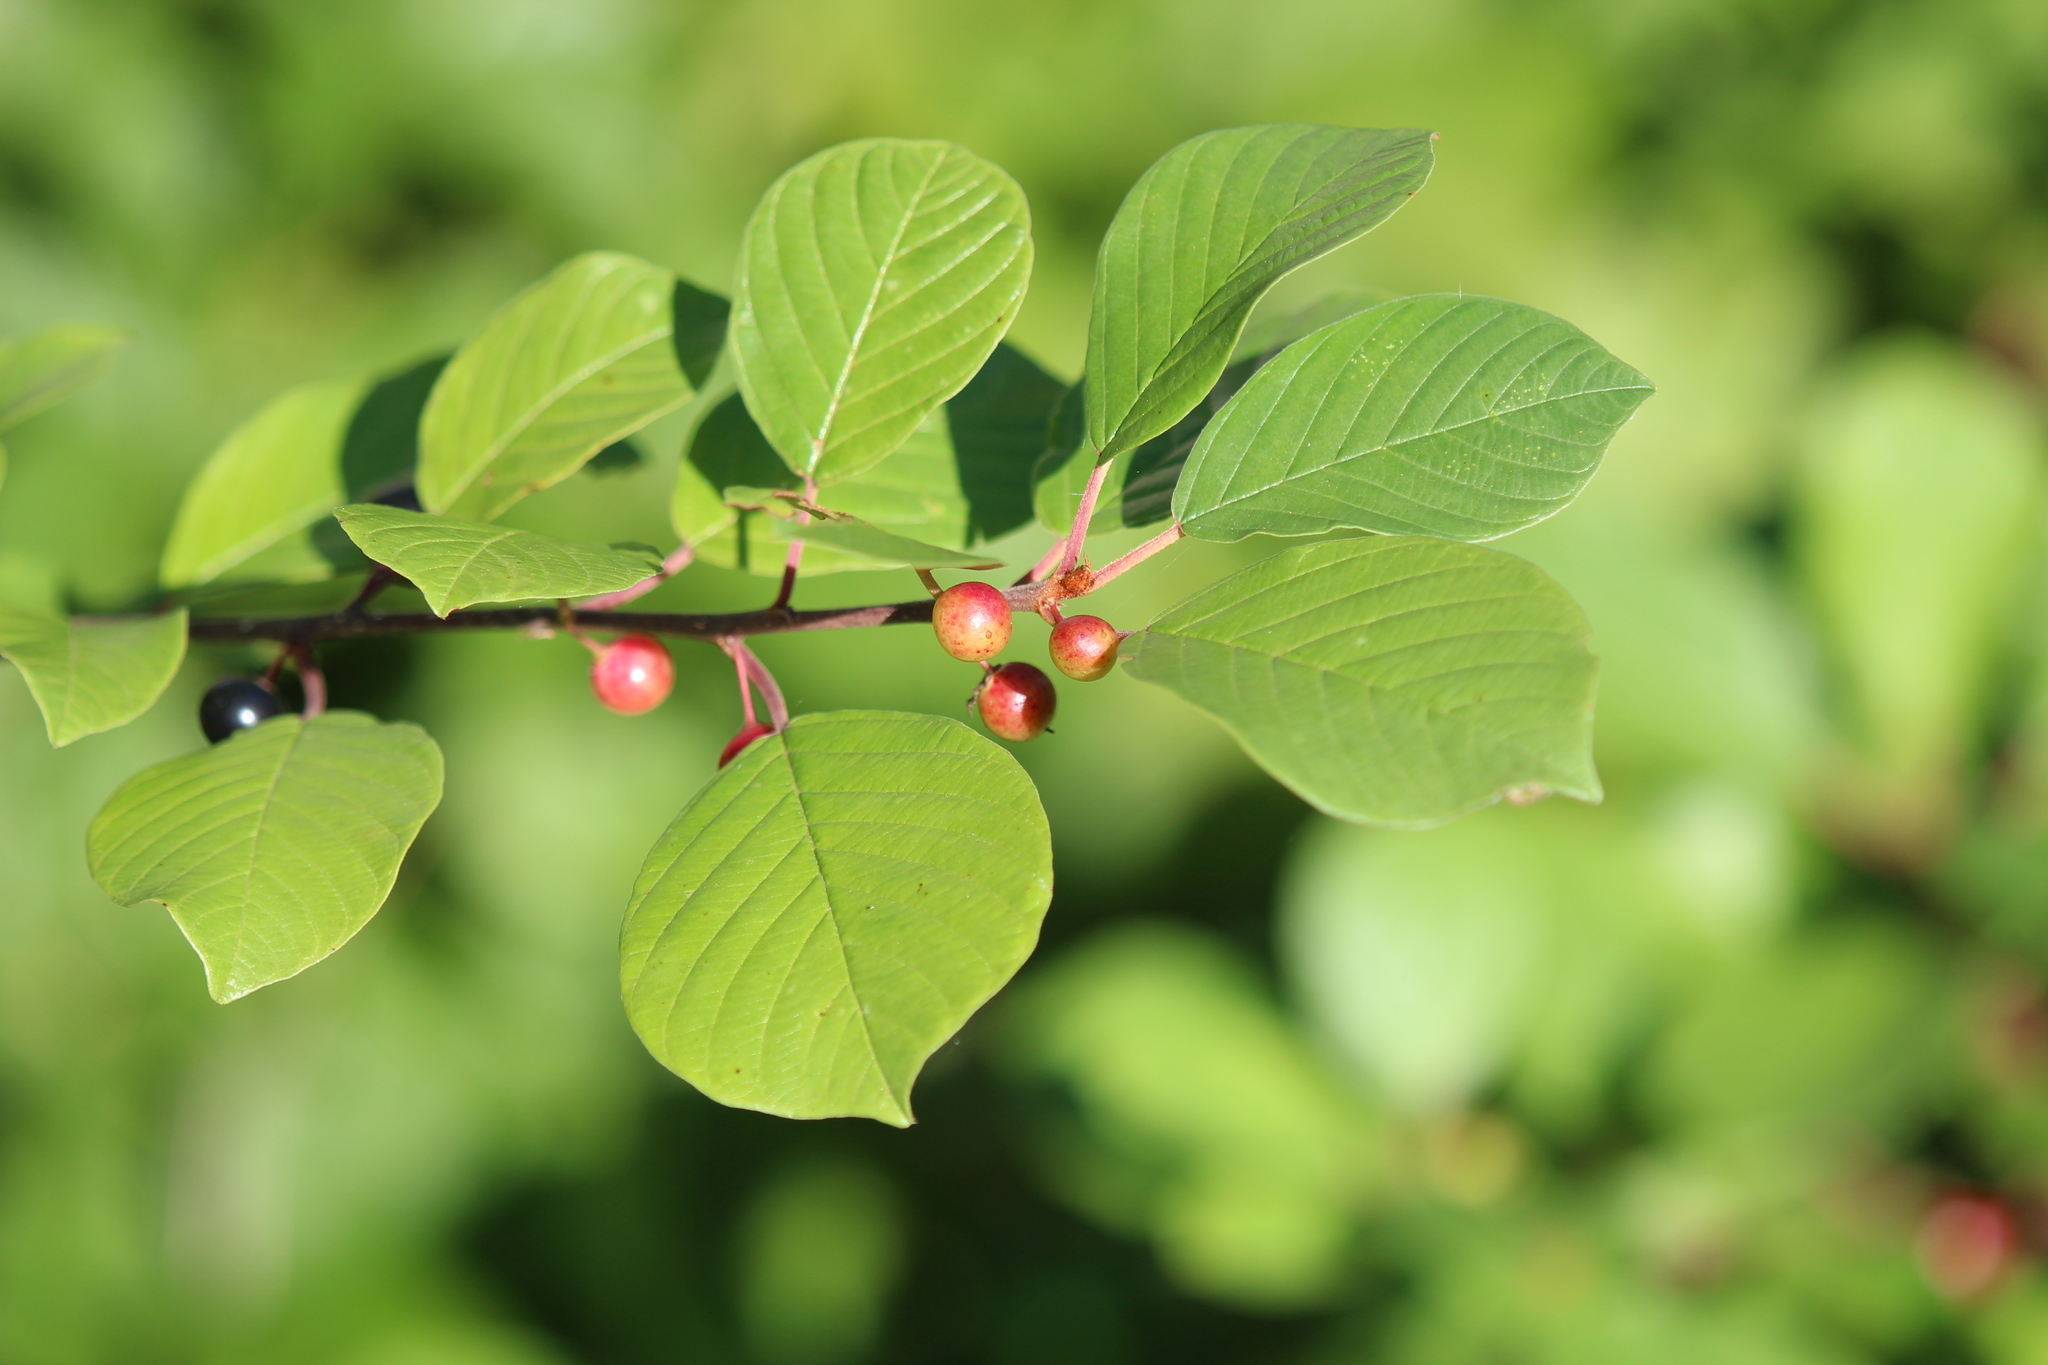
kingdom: Plantae
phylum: Tracheophyta
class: Magnoliopsida
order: Rosales
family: Rhamnaceae
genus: Frangula
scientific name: Frangula alnus
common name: Alder buckthorn
